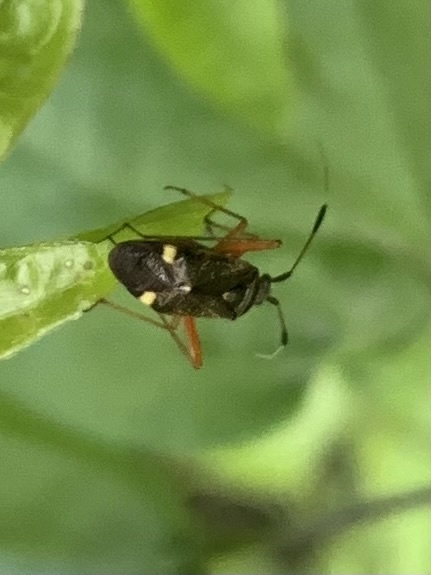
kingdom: Animalia
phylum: Arthropoda
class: Insecta
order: Hemiptera
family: Miridae
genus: Closterotomus
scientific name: Closterotomus biclavatus
